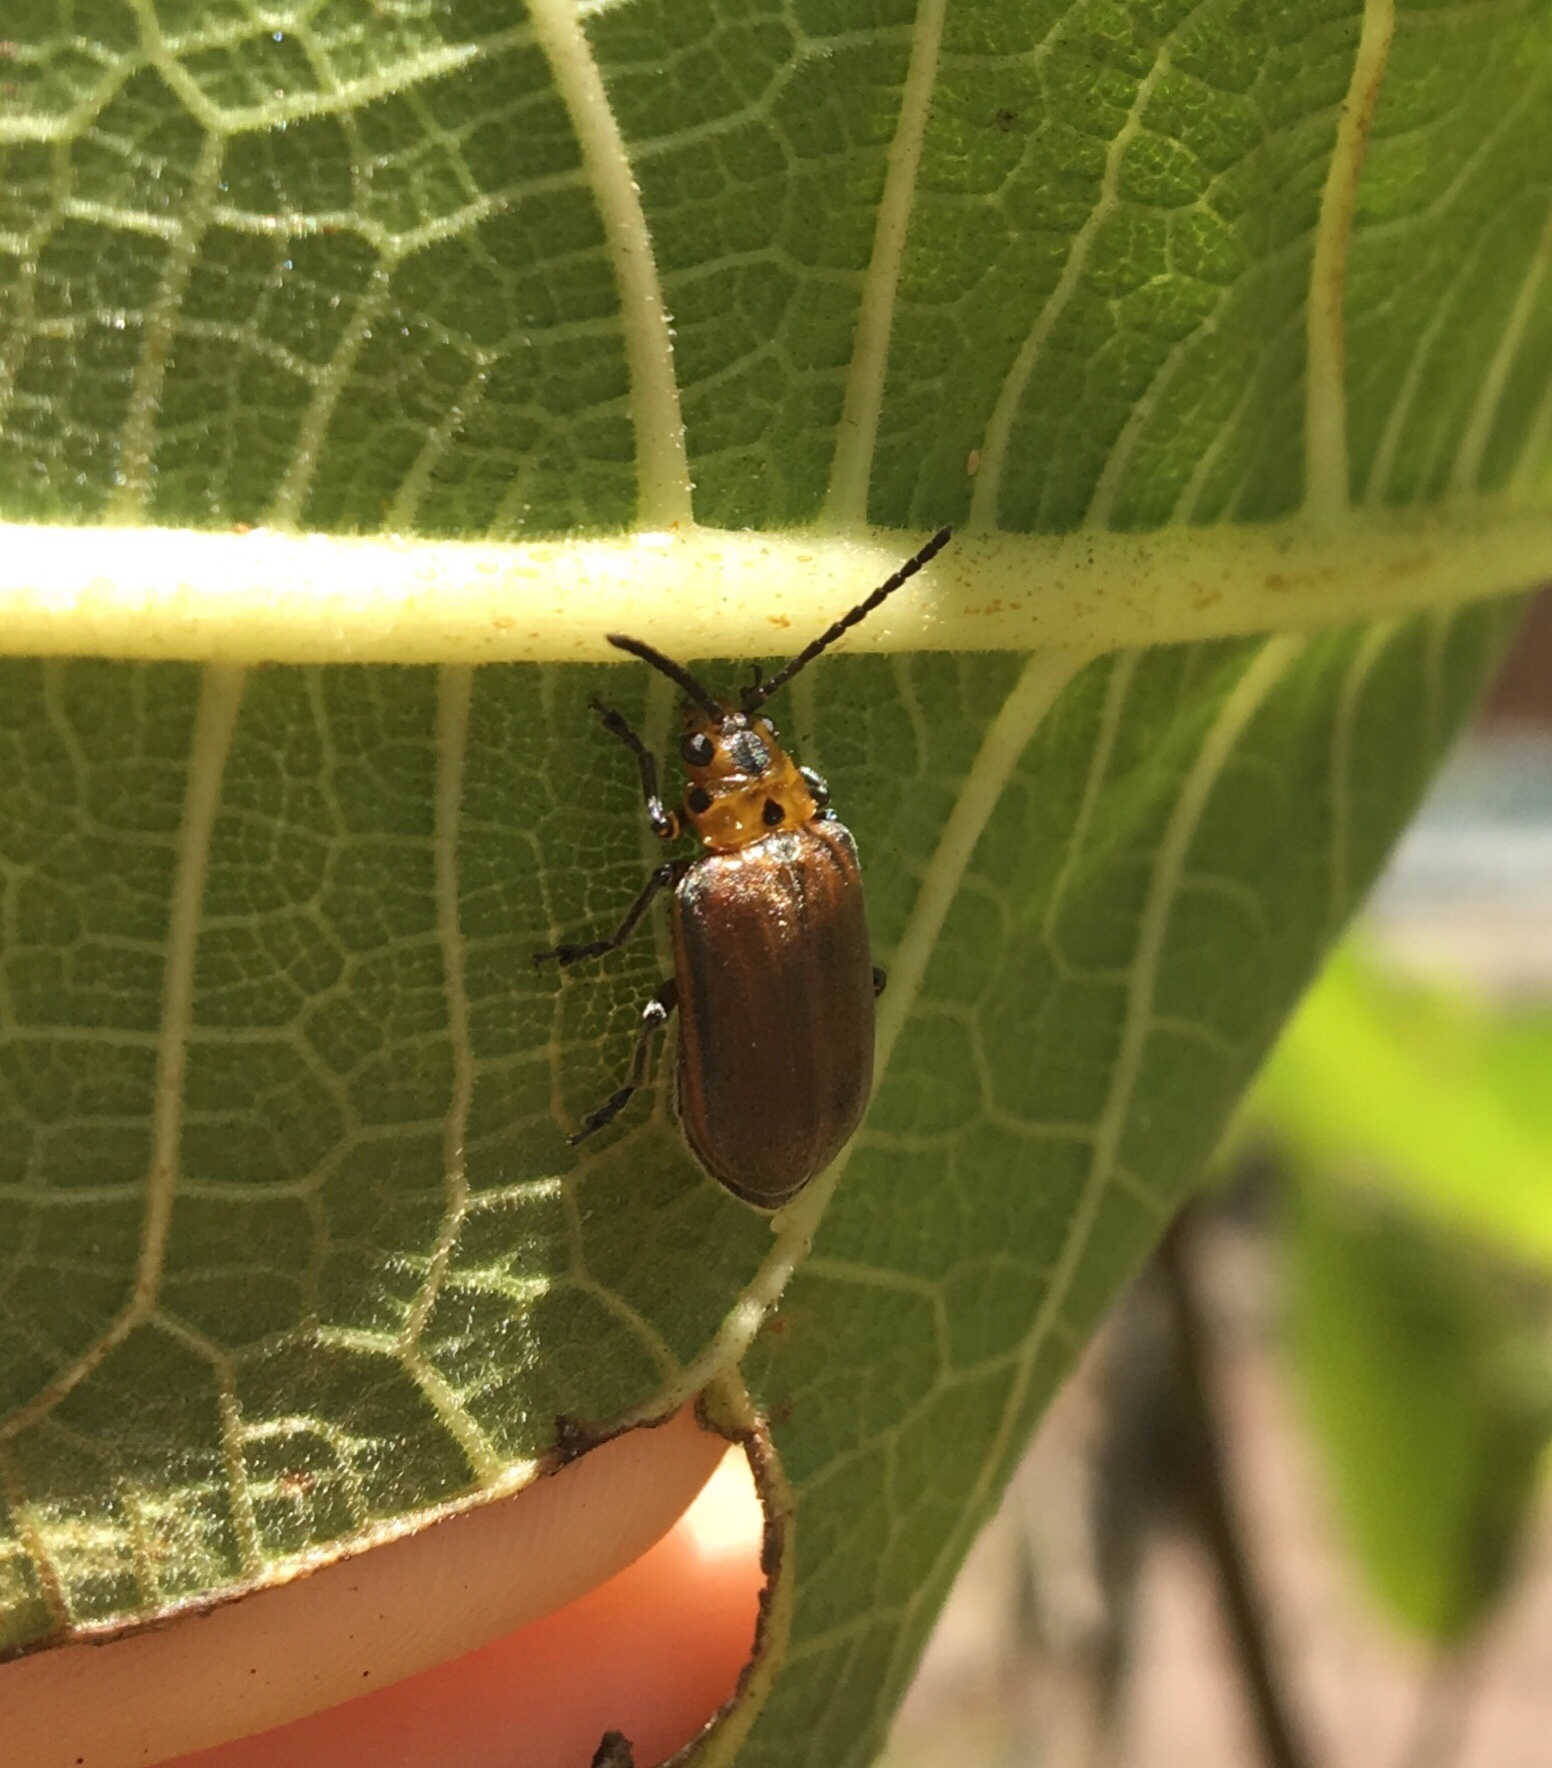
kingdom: Animalia
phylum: Arthropoda
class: Insecta
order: Coleoptera
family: Chrysomelidae
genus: Poneridia
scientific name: Poneridia semipullata
